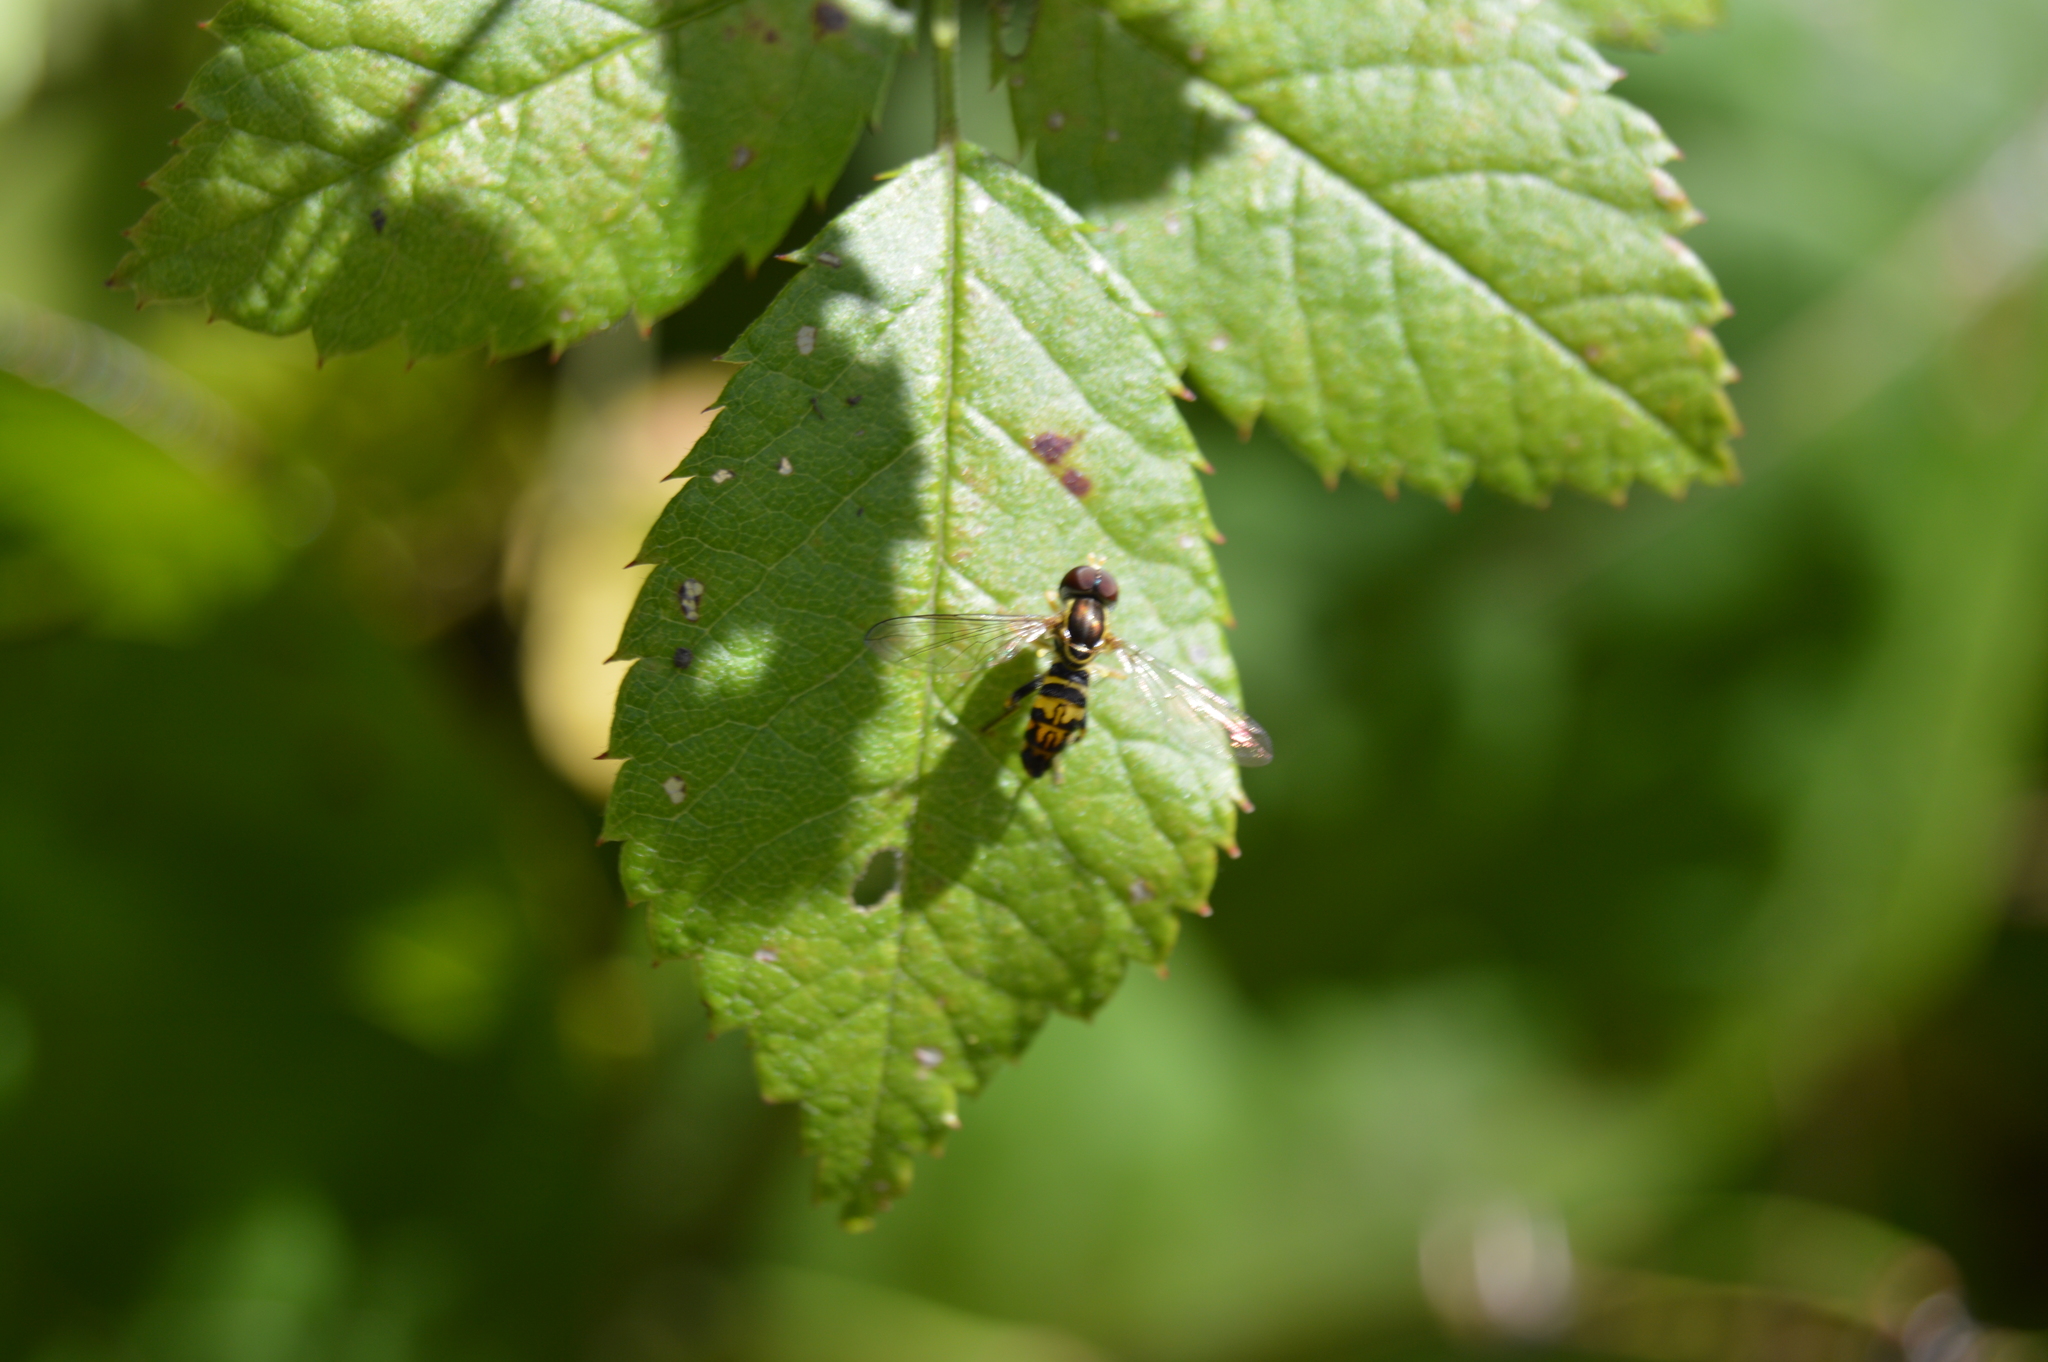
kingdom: Animalia
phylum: Arthropoda
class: Insecta
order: Diptera
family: Syrphidae
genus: Toxomerus
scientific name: Toxomerus geminatus
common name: Eastern calligrapher
